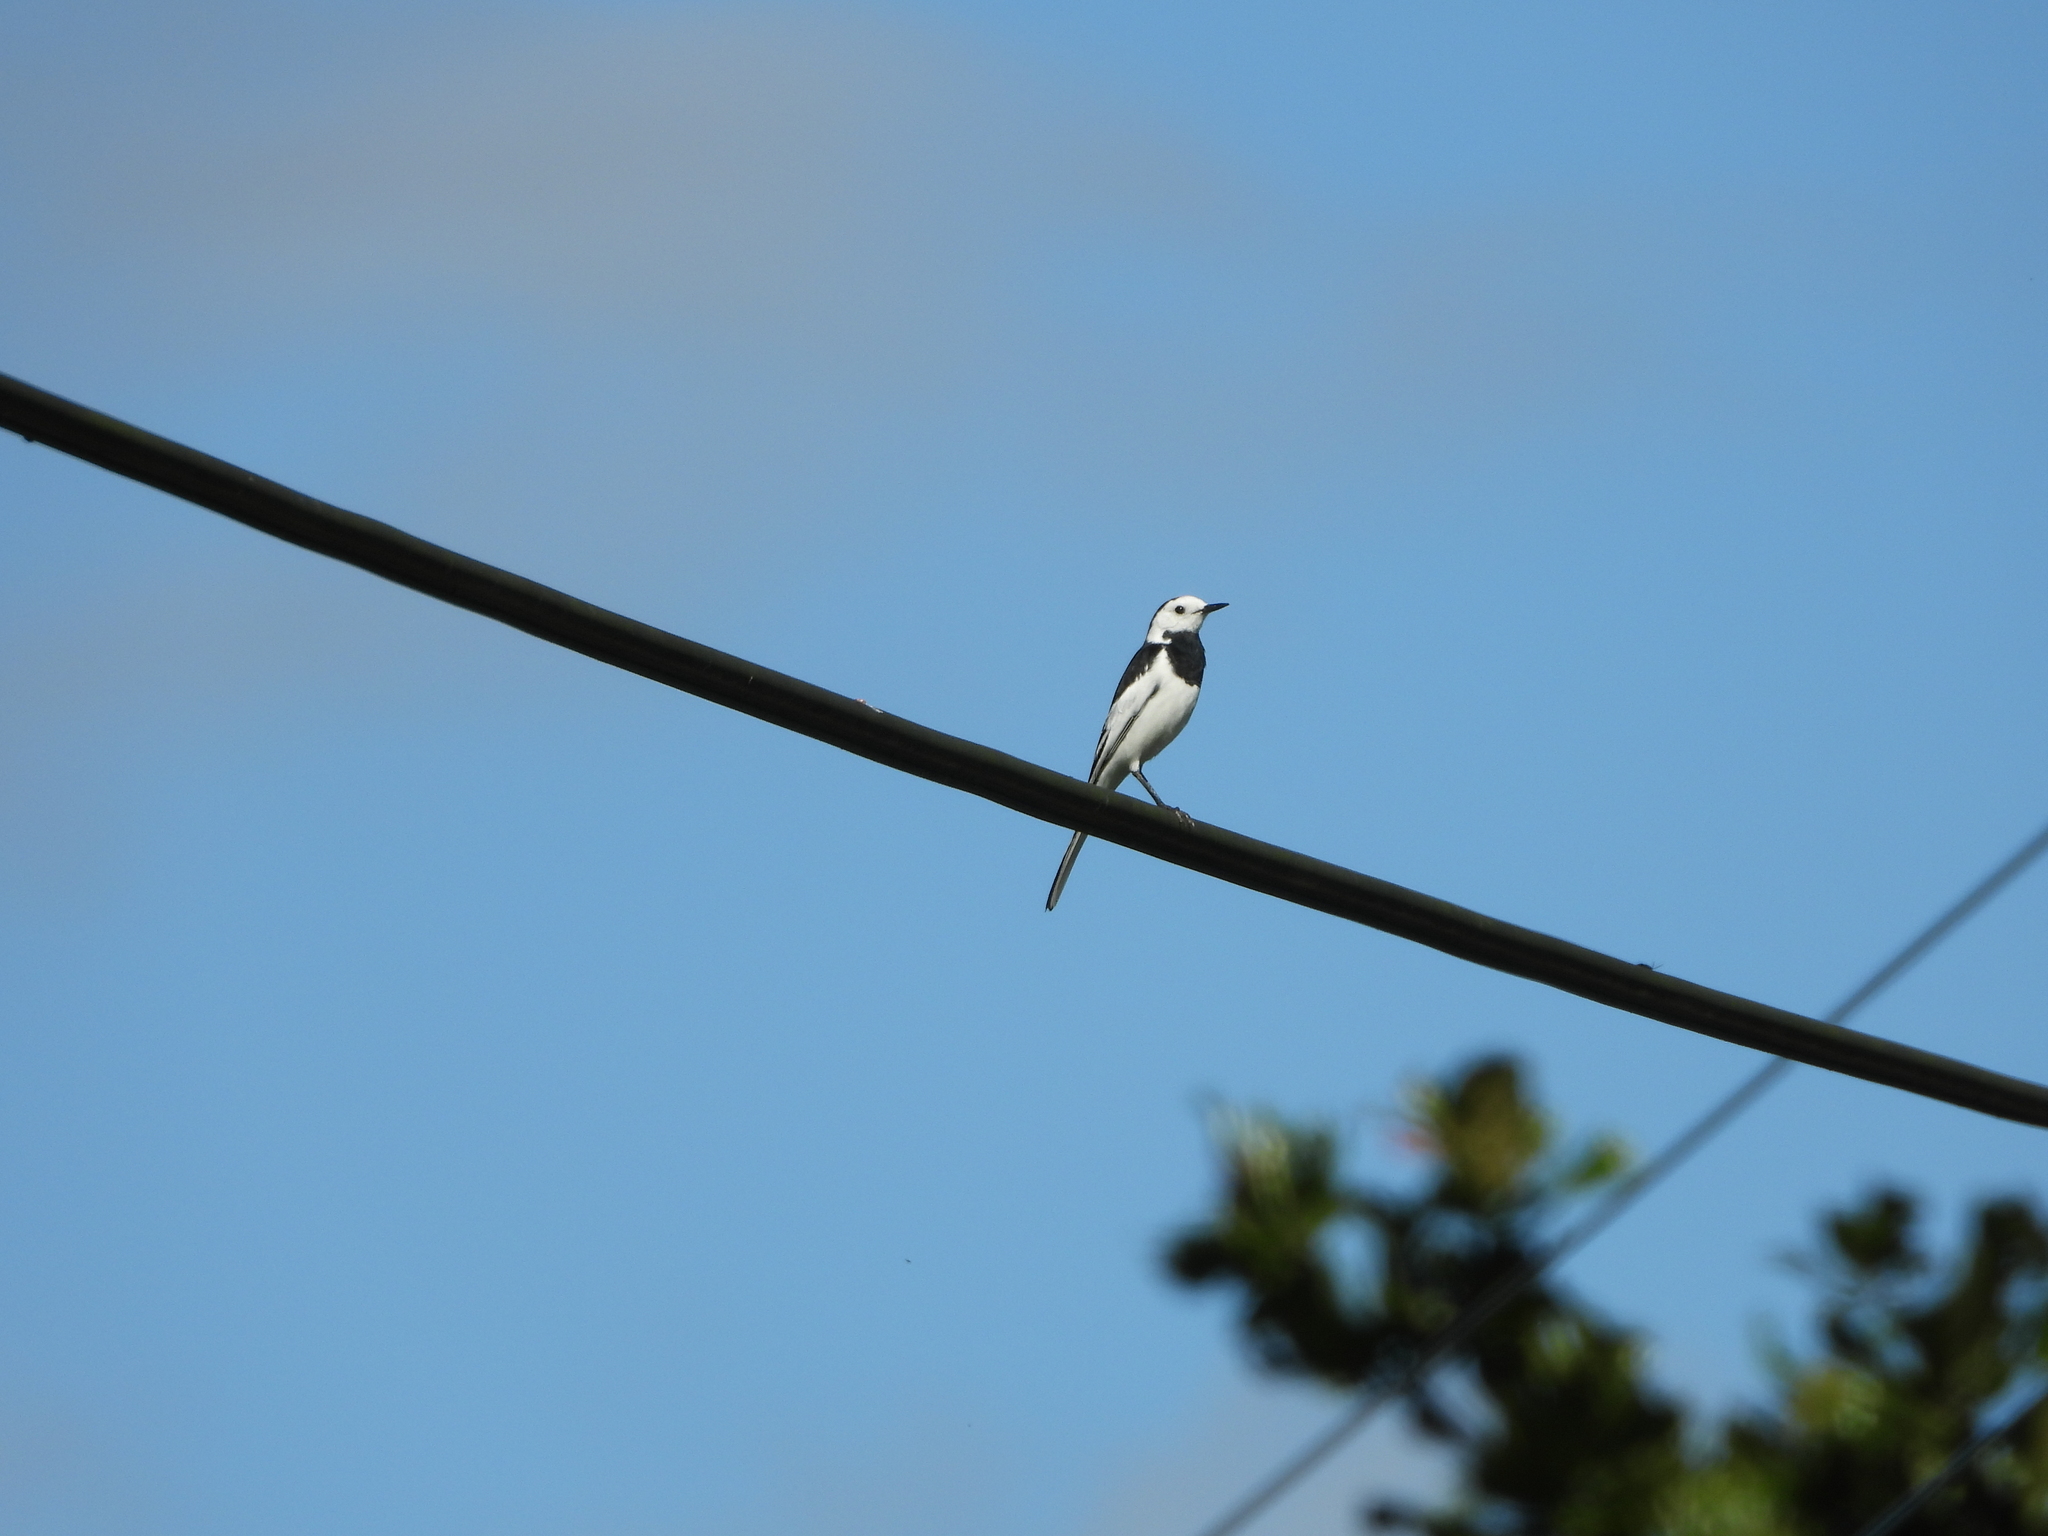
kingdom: Animalia
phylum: Chordata
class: Aves
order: Passeriformes
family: Motacillidae
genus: Motacilla
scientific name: Motacilla alba
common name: White wagtail
